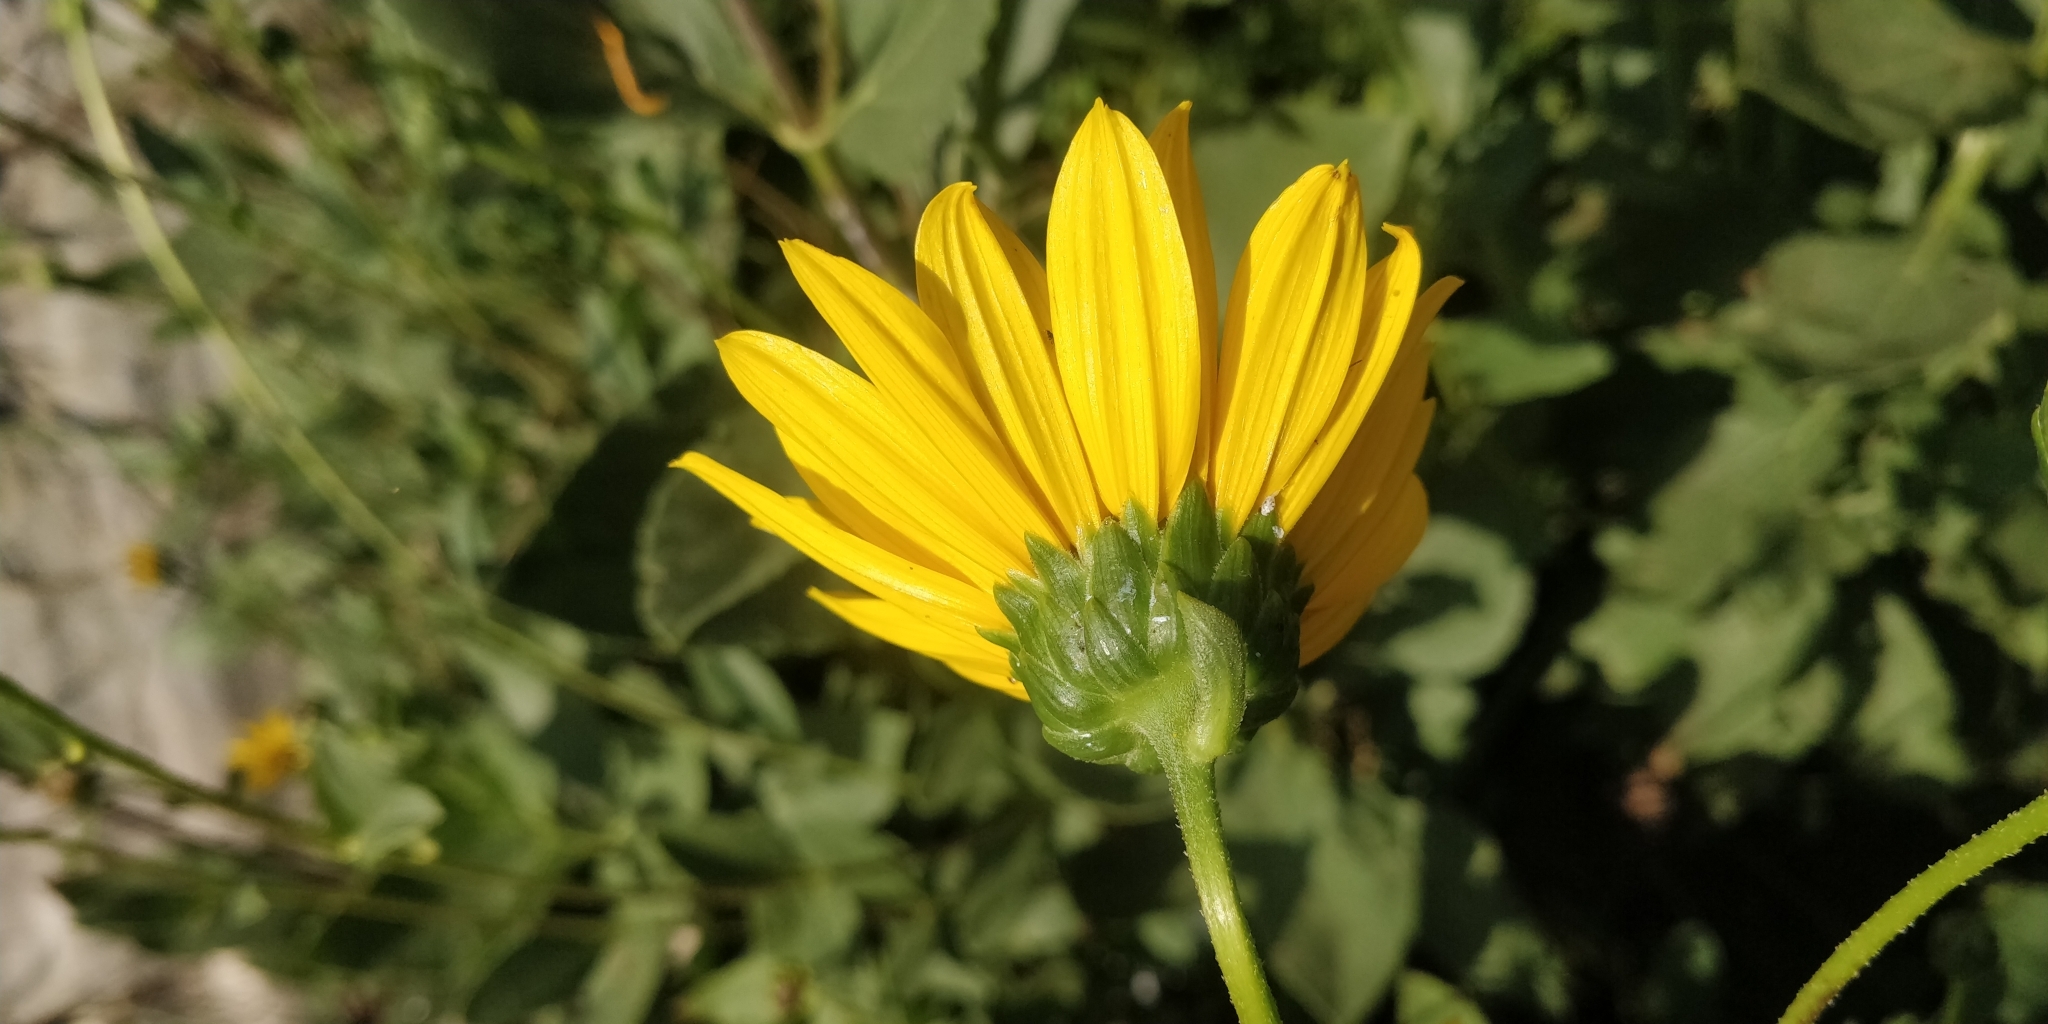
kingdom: Plantae
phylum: Tracheophyta
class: Magnoliopsida
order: Asterales
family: Asteraceae
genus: Helianthus
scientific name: Helianthus pauciflorus
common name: Stiff sunflower
